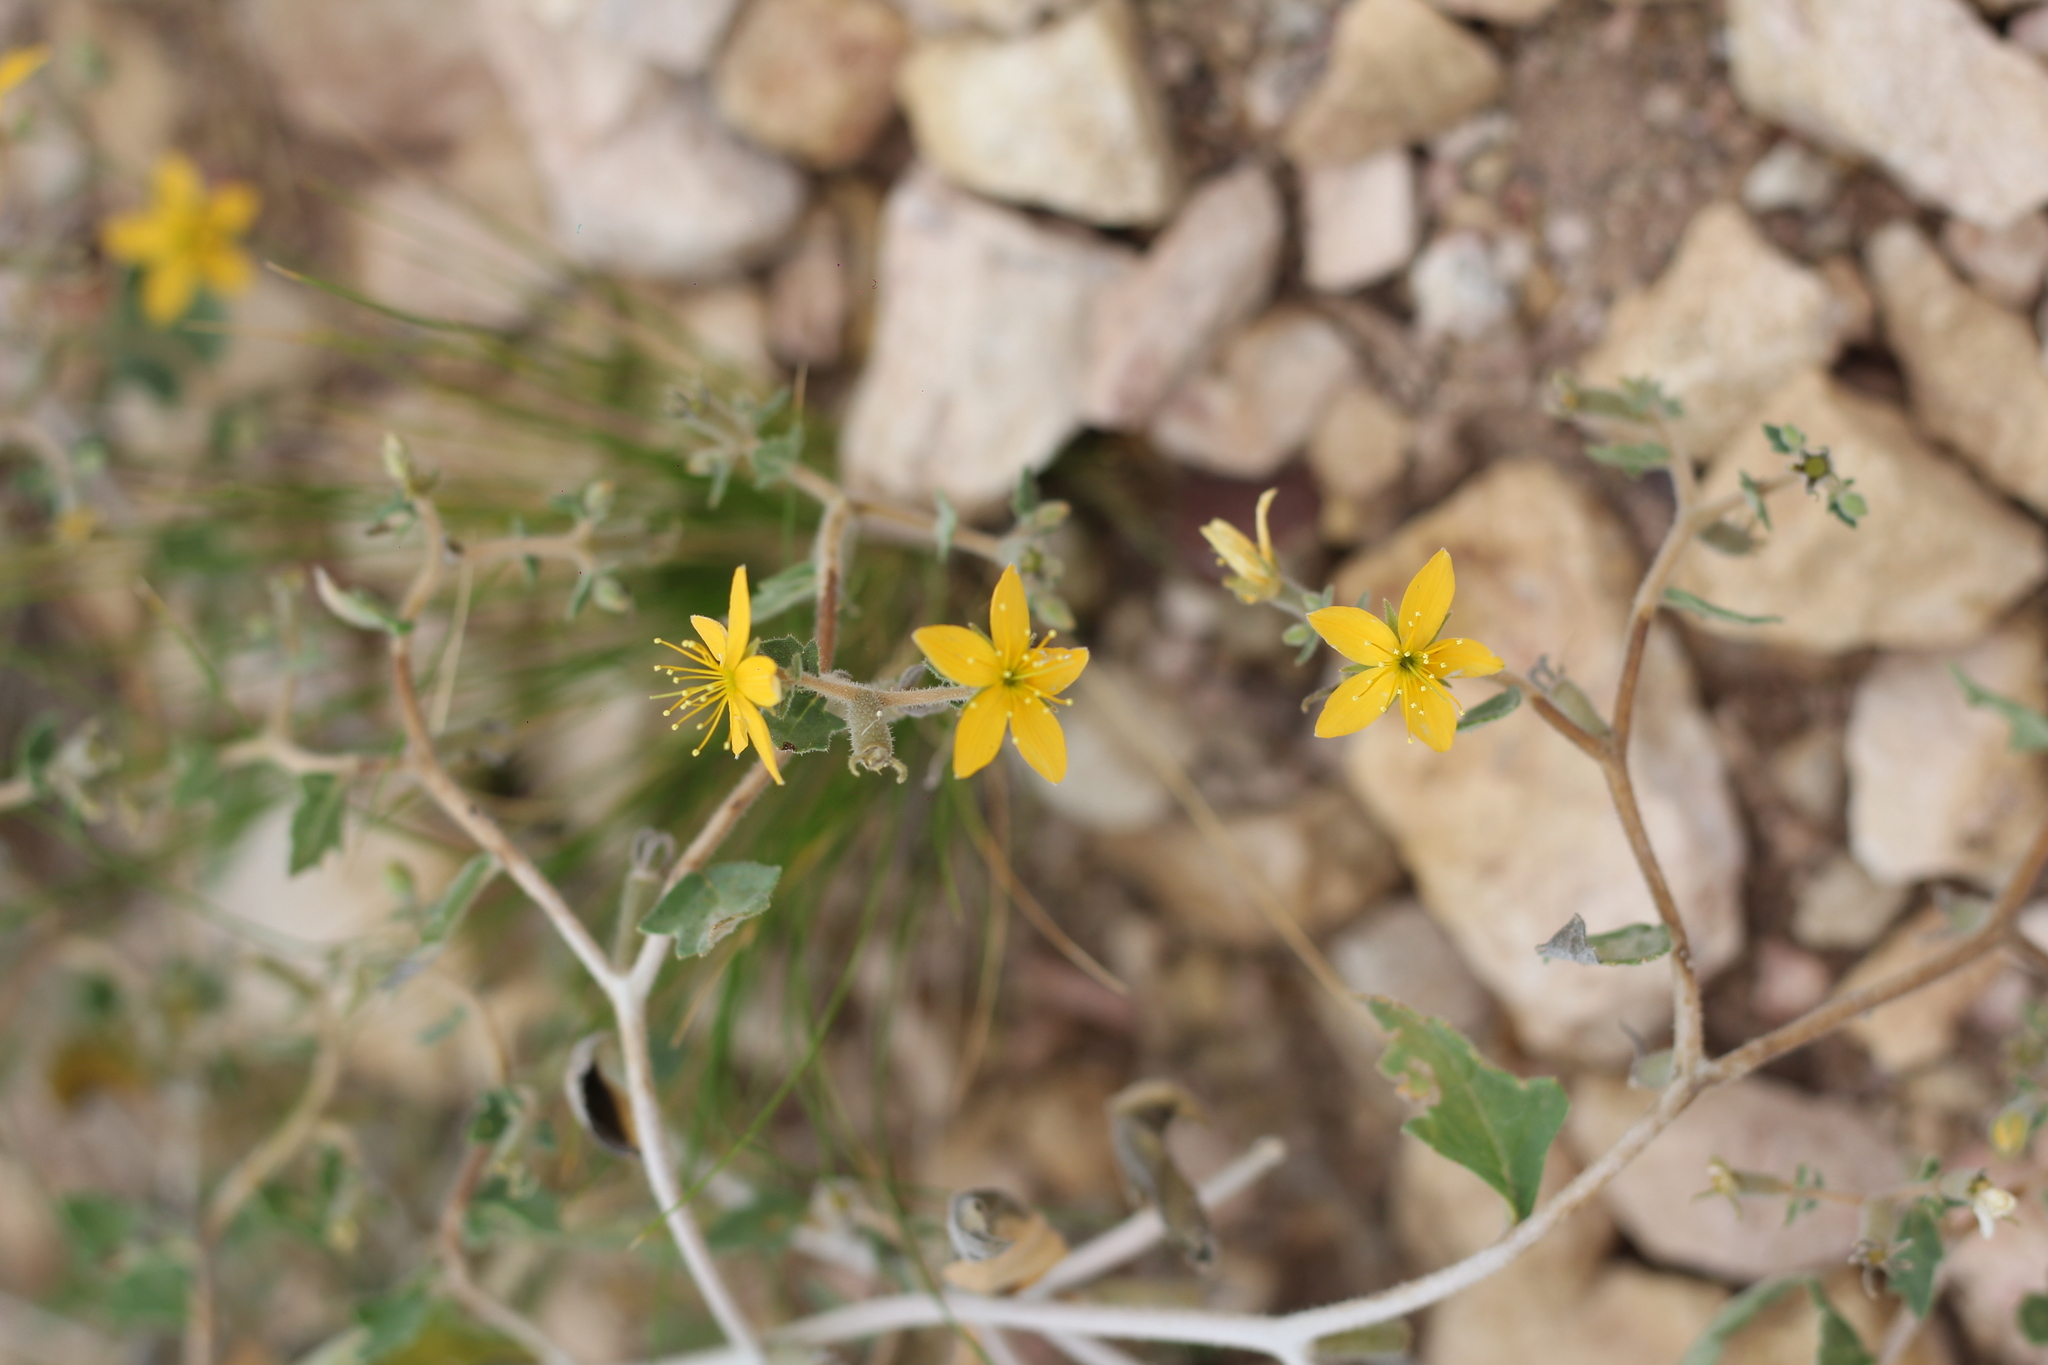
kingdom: Plantae
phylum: Tracheophyta
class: Magnoliopsida
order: Cornales
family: Loasaceae
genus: Mentzelia
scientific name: Mentzelia parvifolia
